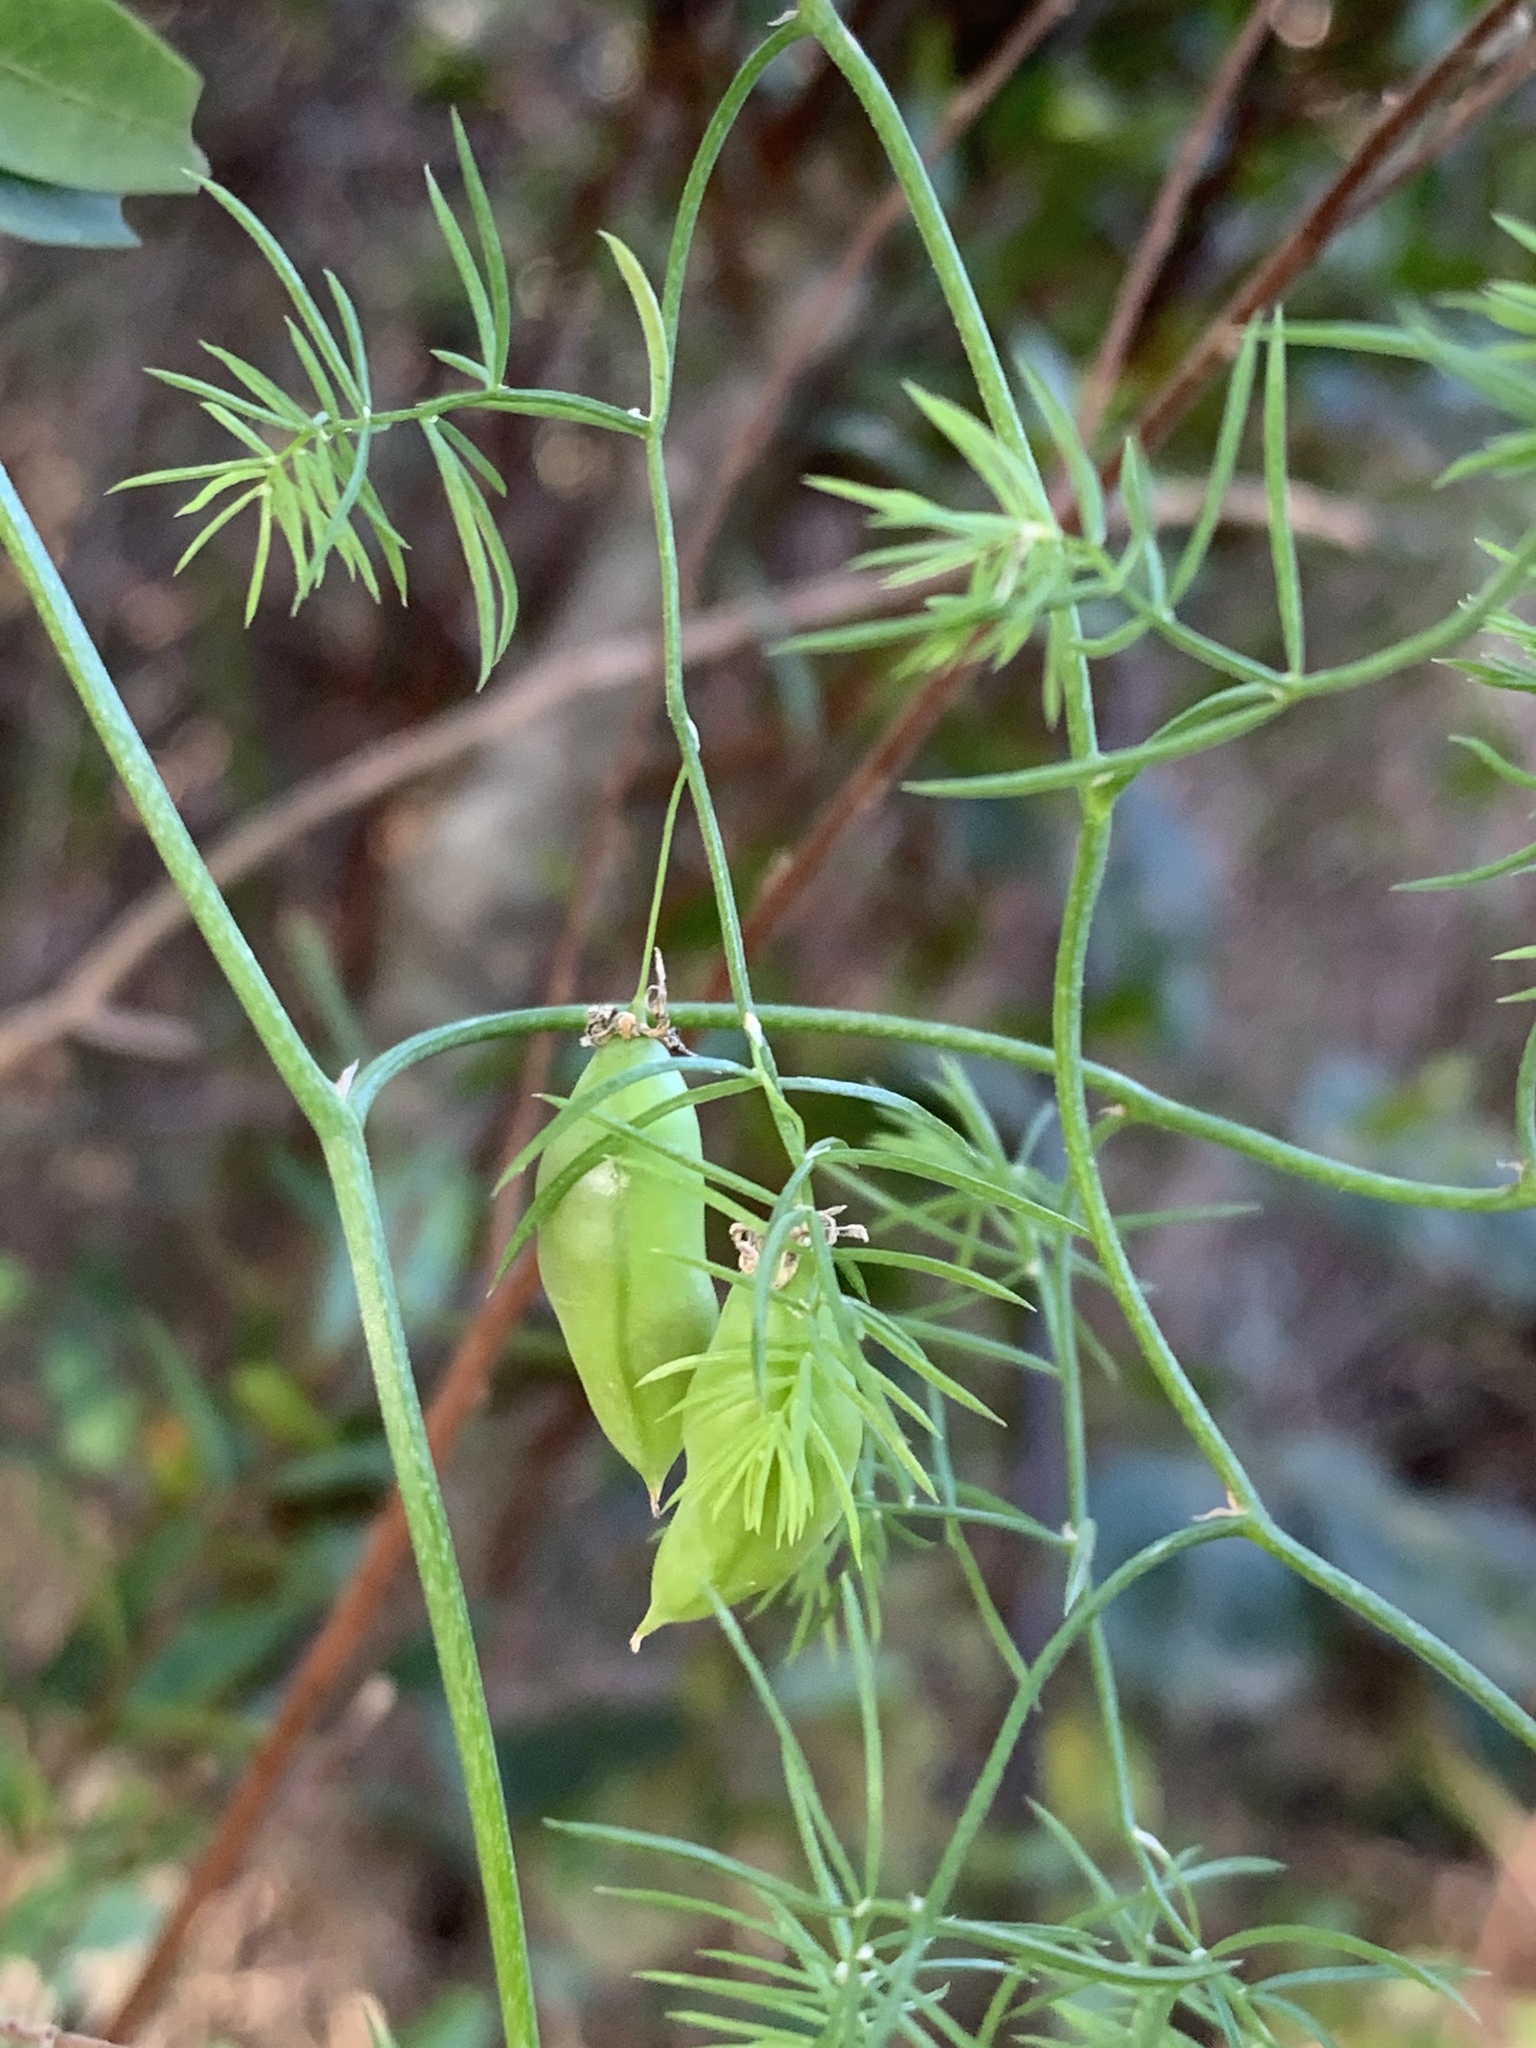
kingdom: Plantae
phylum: Tracheophyta
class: Liliopsida
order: Asparagales
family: Asparagaceae
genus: Asparagus
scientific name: Asparagus declinatus
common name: Bridal-creeper
